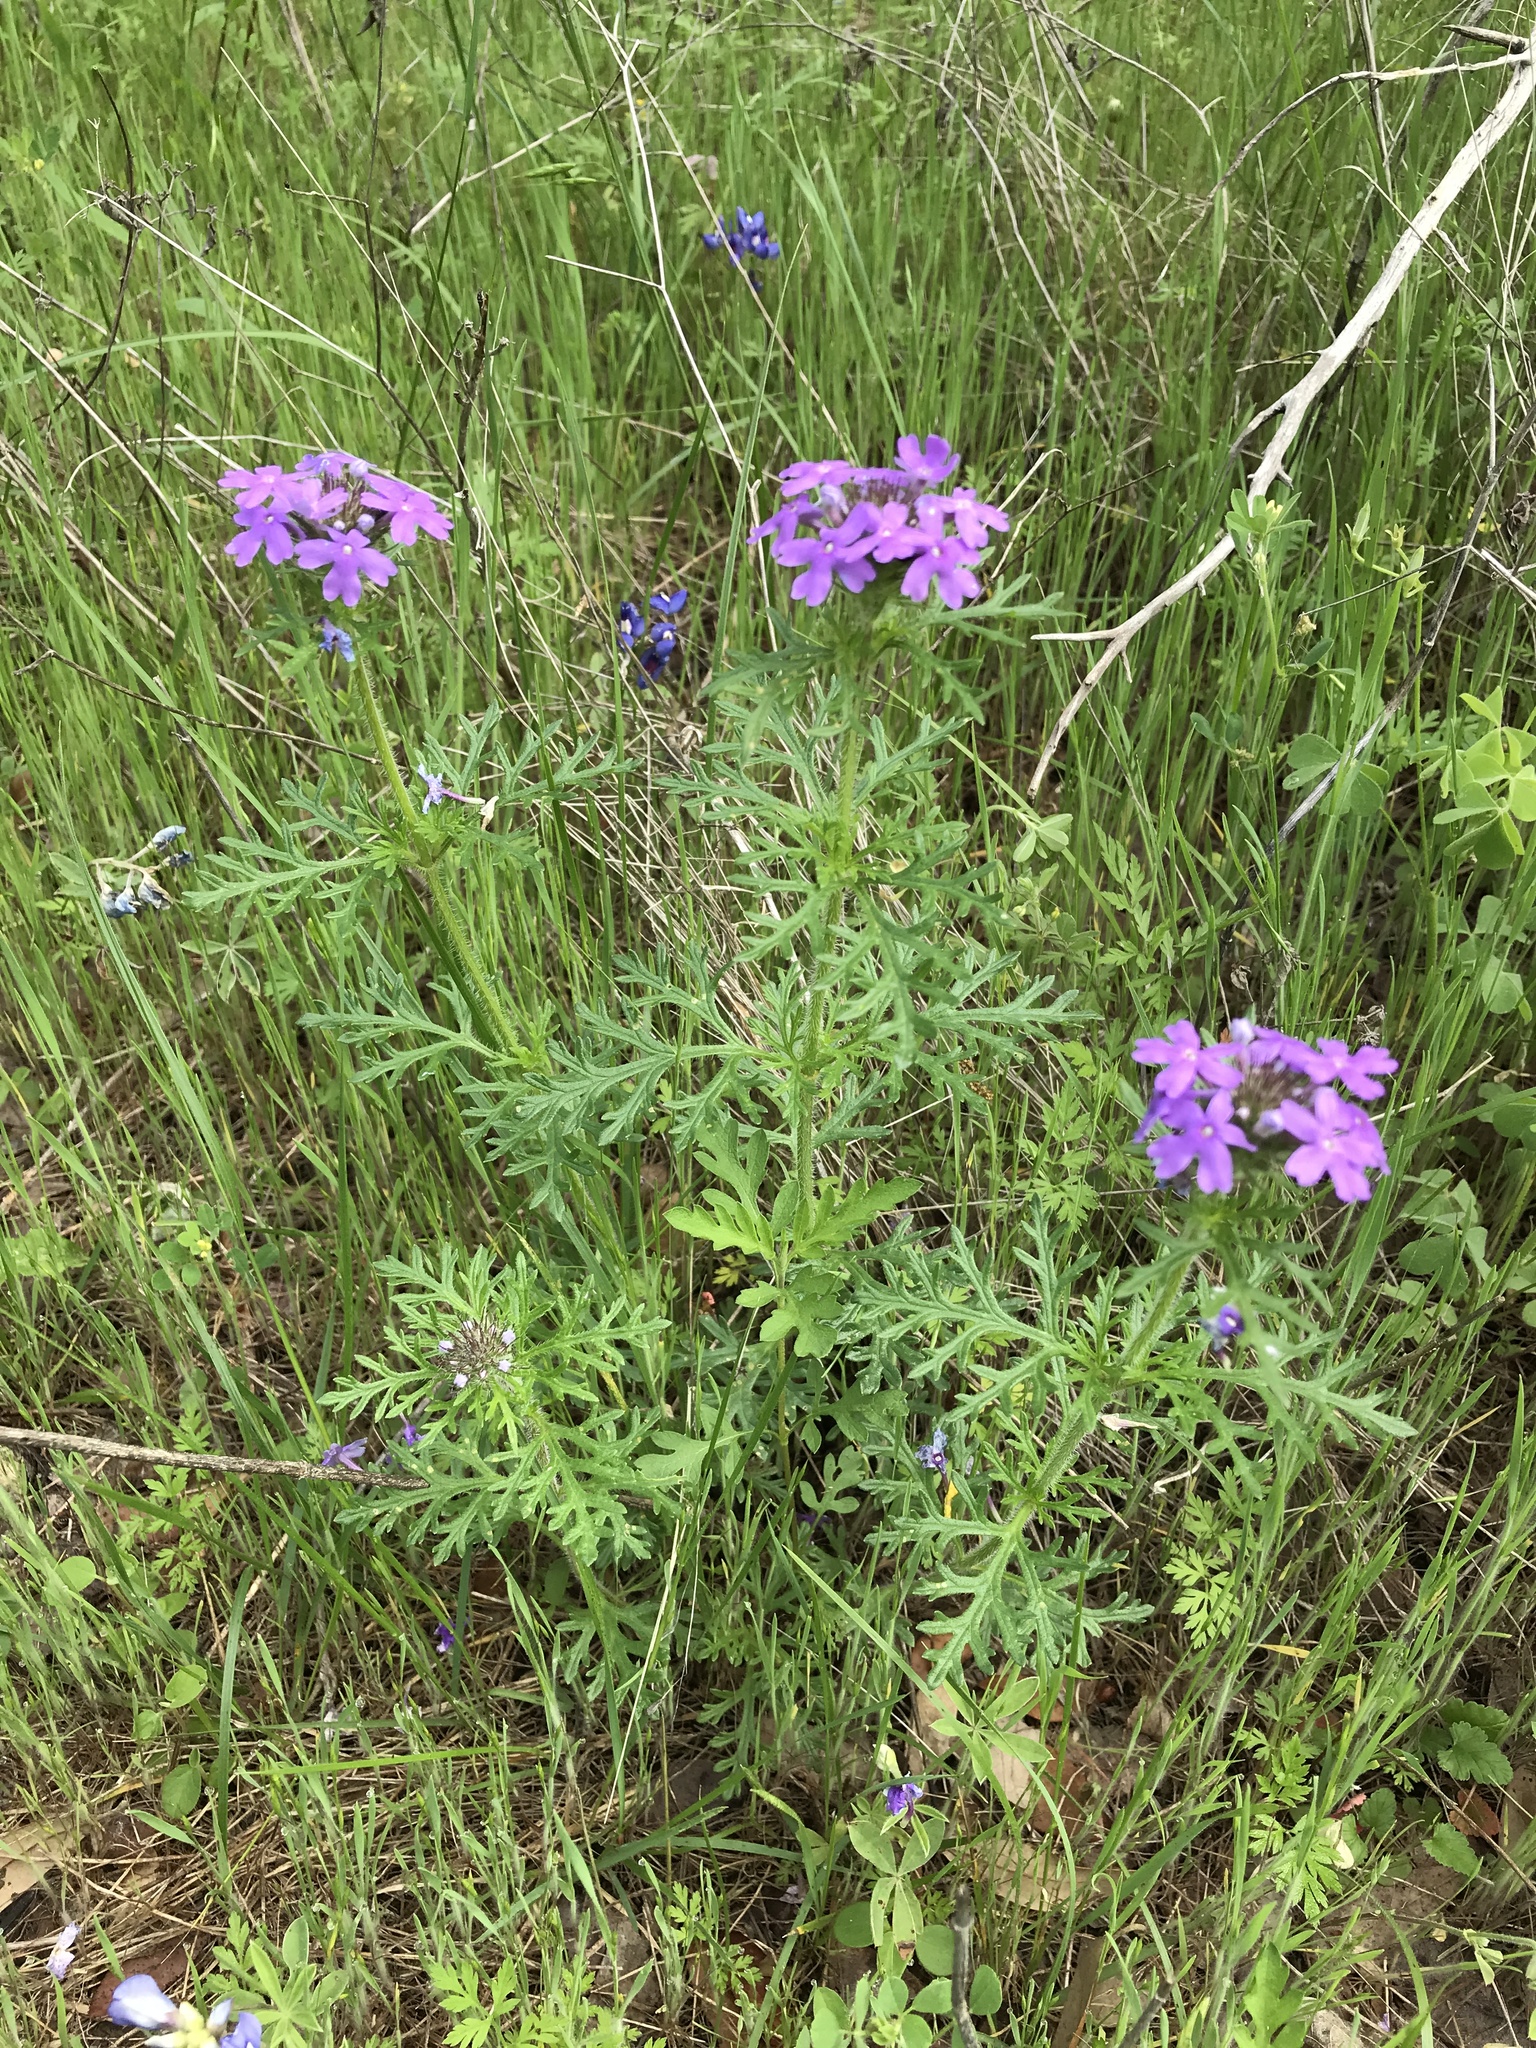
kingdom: Plantae
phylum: Tracheophyta
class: Magnoliopsida
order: Lamiales
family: Verbenaceae
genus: Verbena
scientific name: Verbena bipinnatifida
